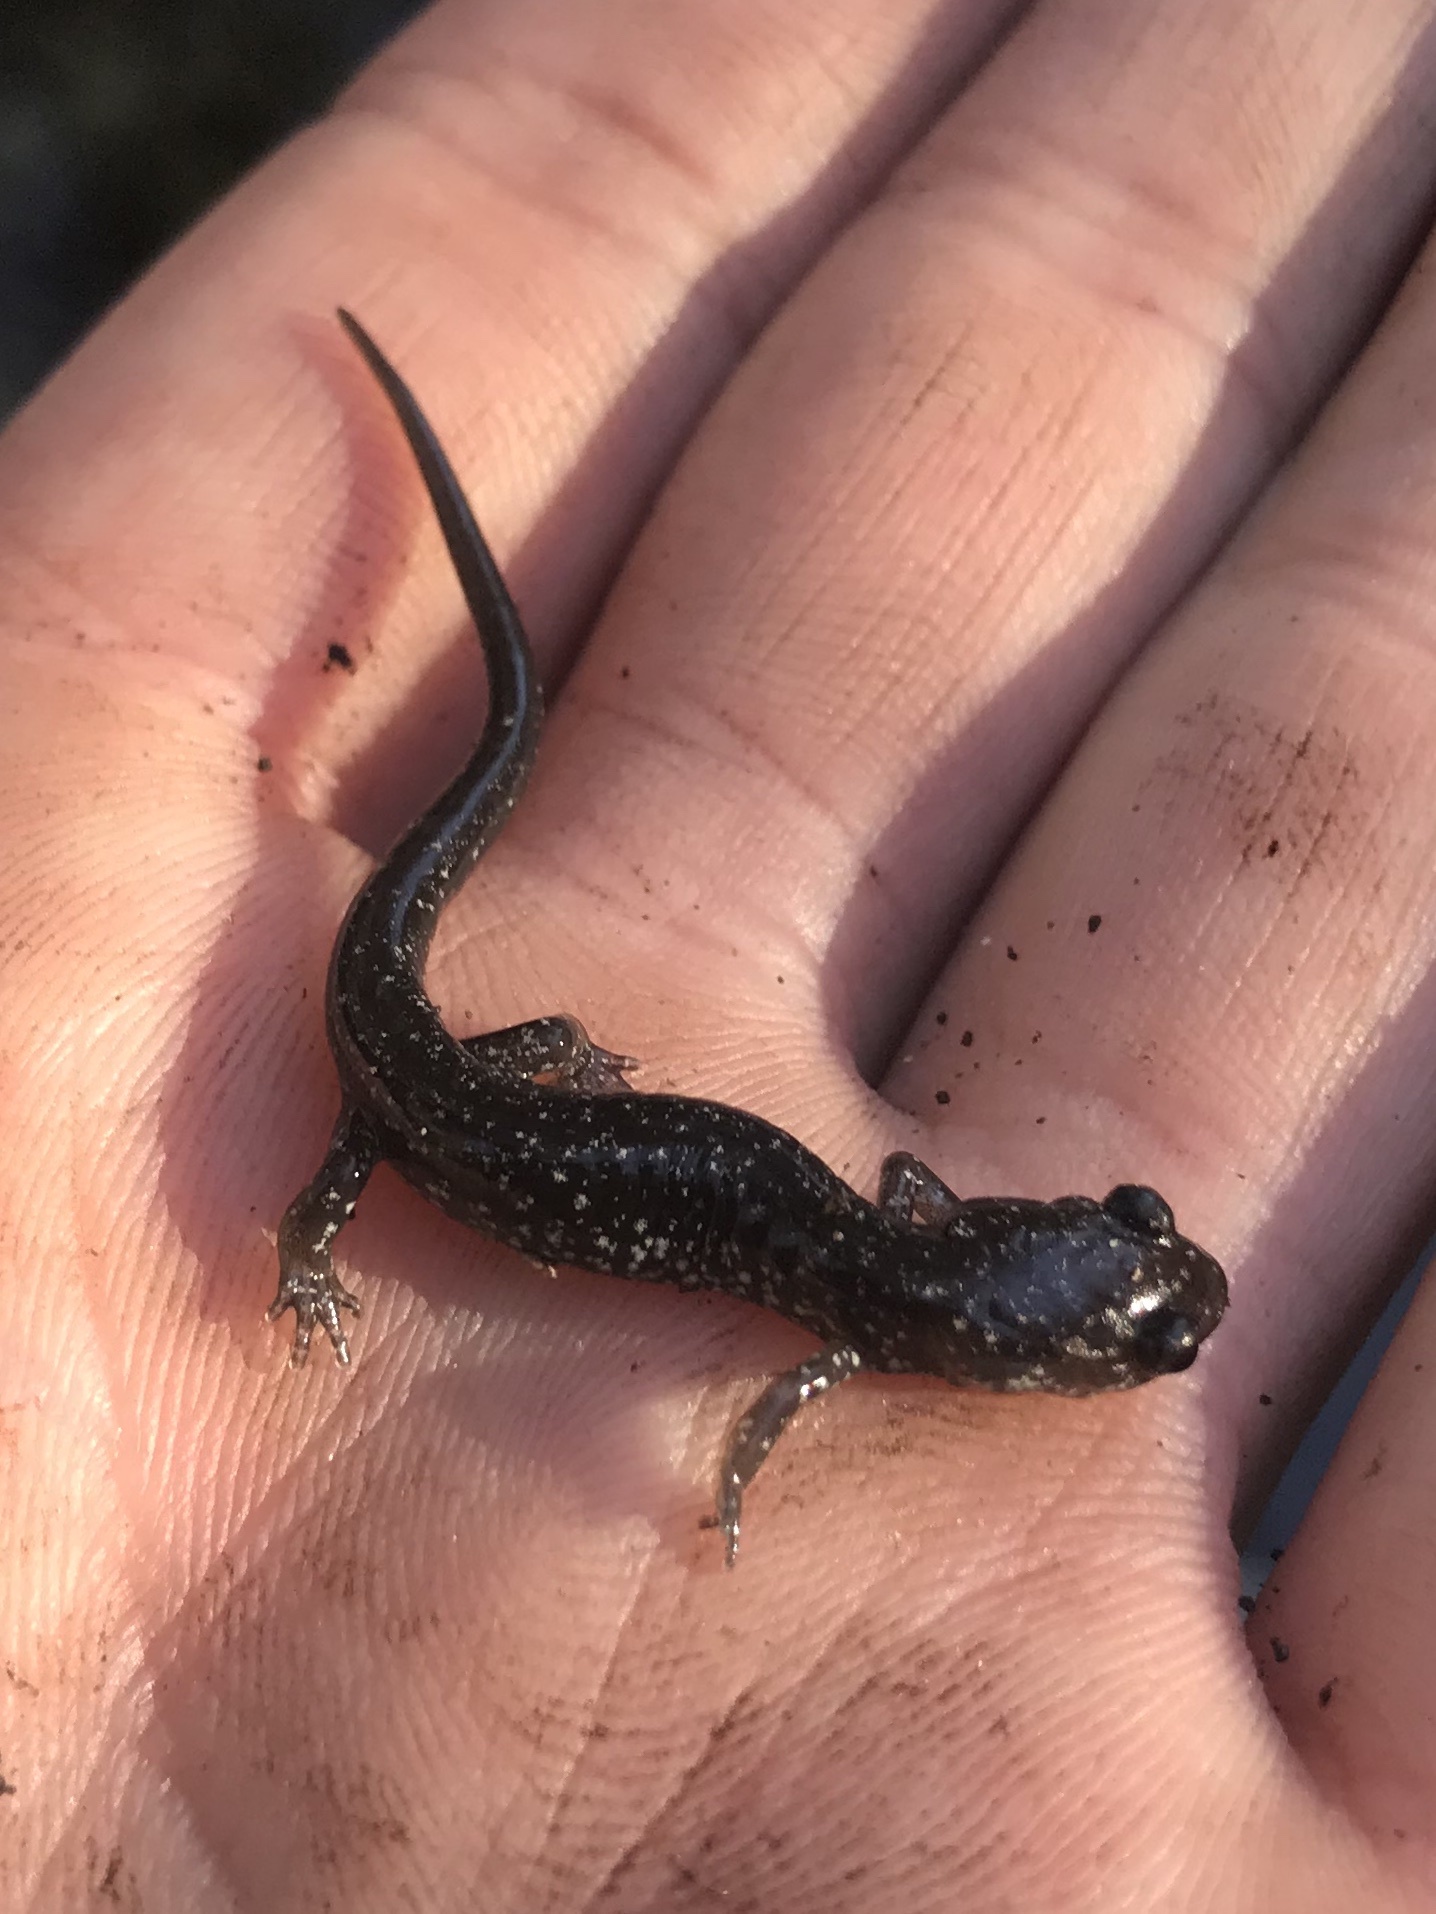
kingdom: Animalia
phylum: Chordata
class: Amphibia
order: Caudata
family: Plethodontidae
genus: Plethodon
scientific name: Plethodon albagula
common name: Western slimy salamander
